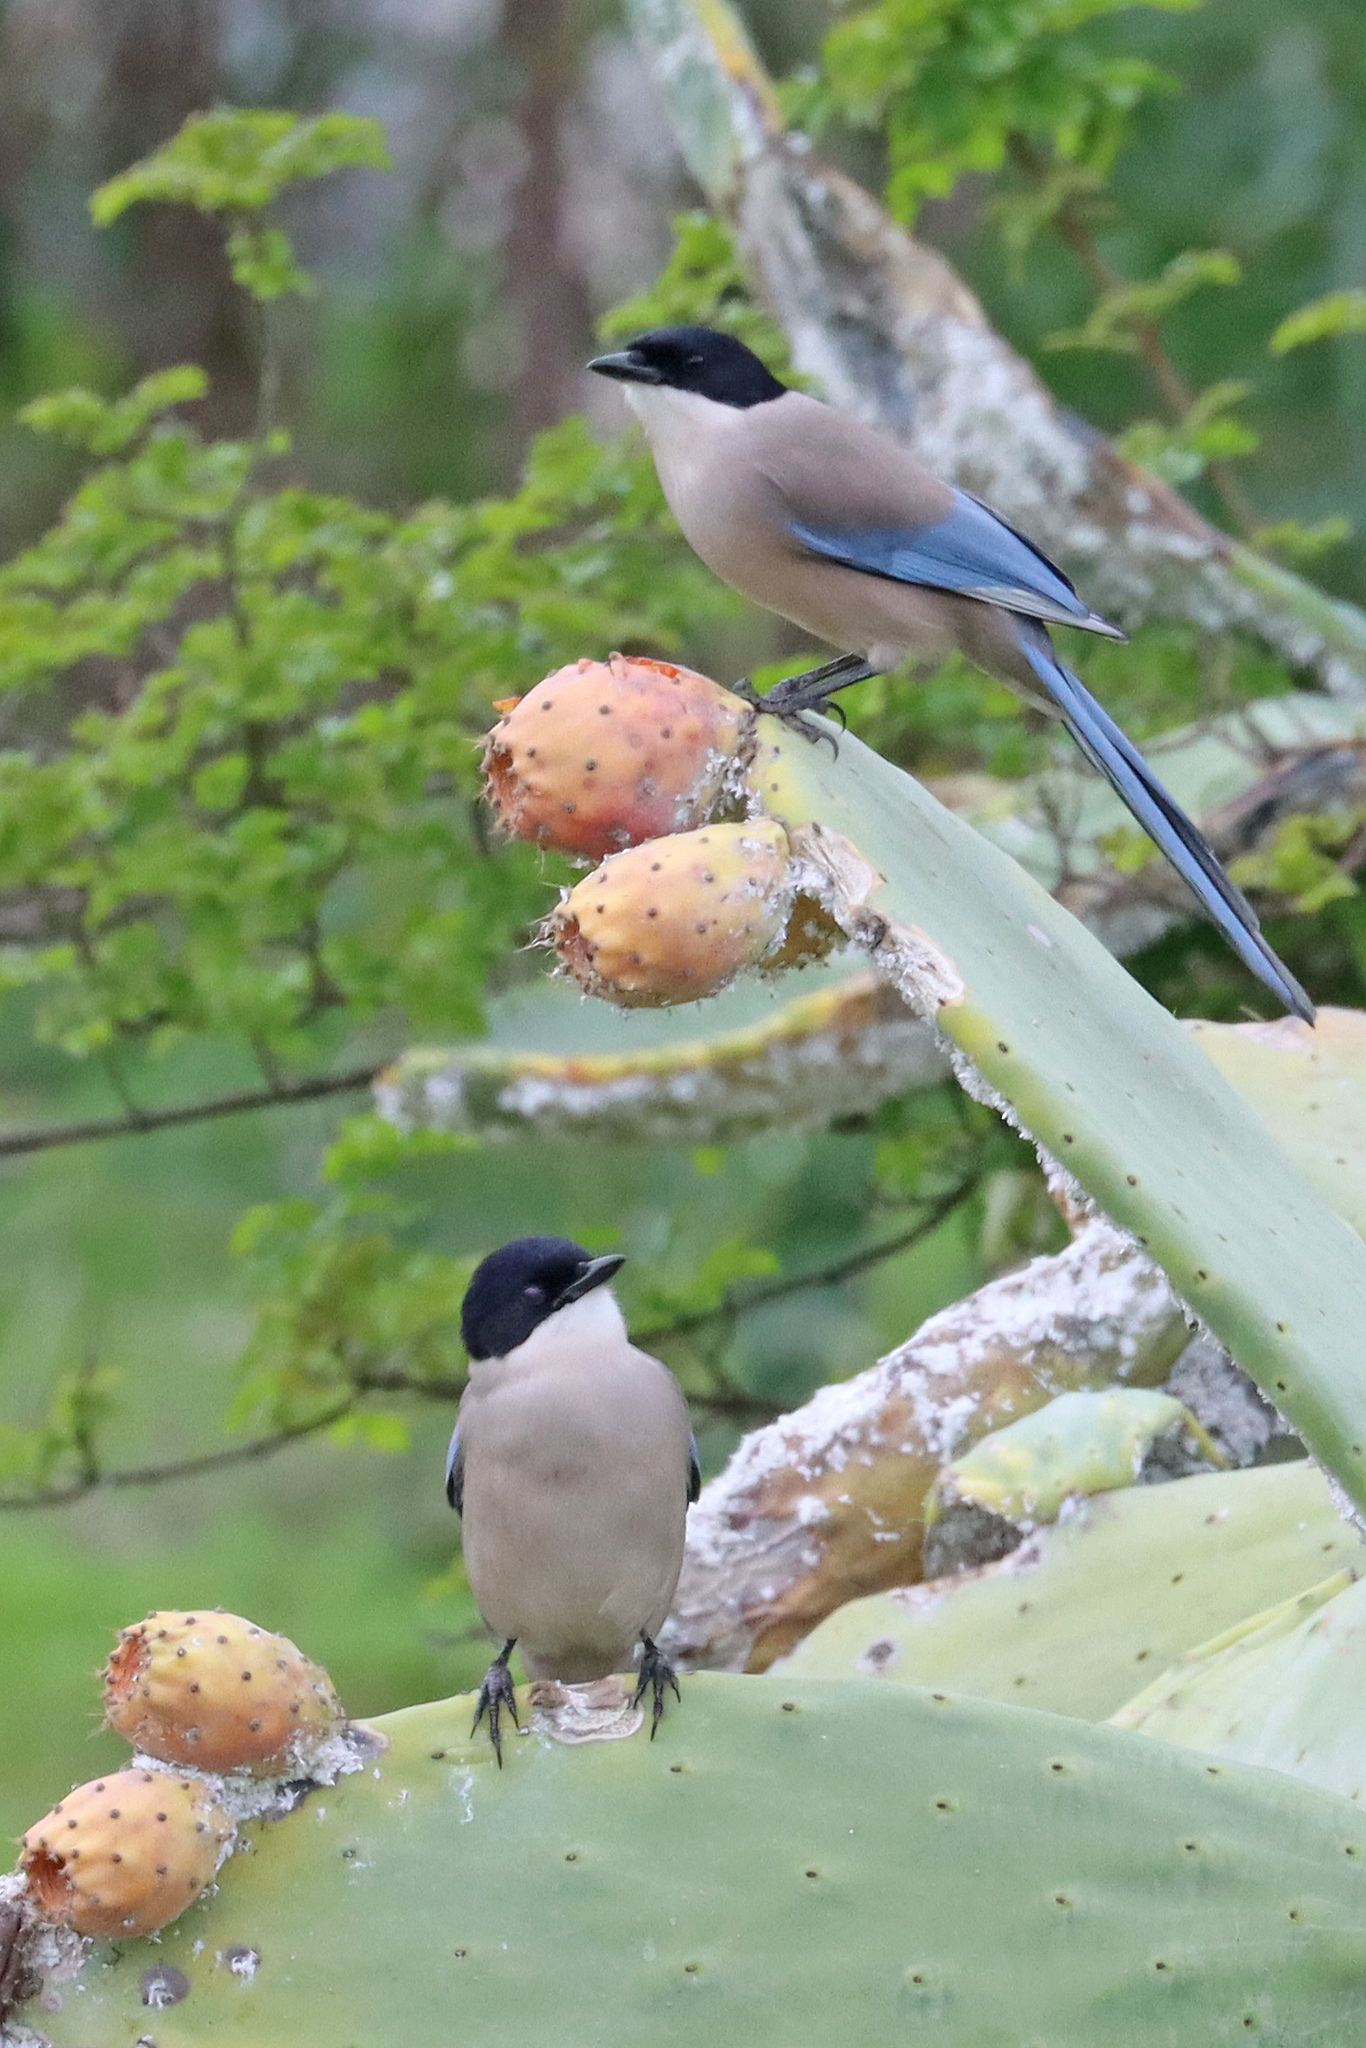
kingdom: Animalia
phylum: Chordata
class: Aves
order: Passeriformes
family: Corvidae
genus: Cyanopica
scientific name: Cyanopica cooki
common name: Iberian magpie
